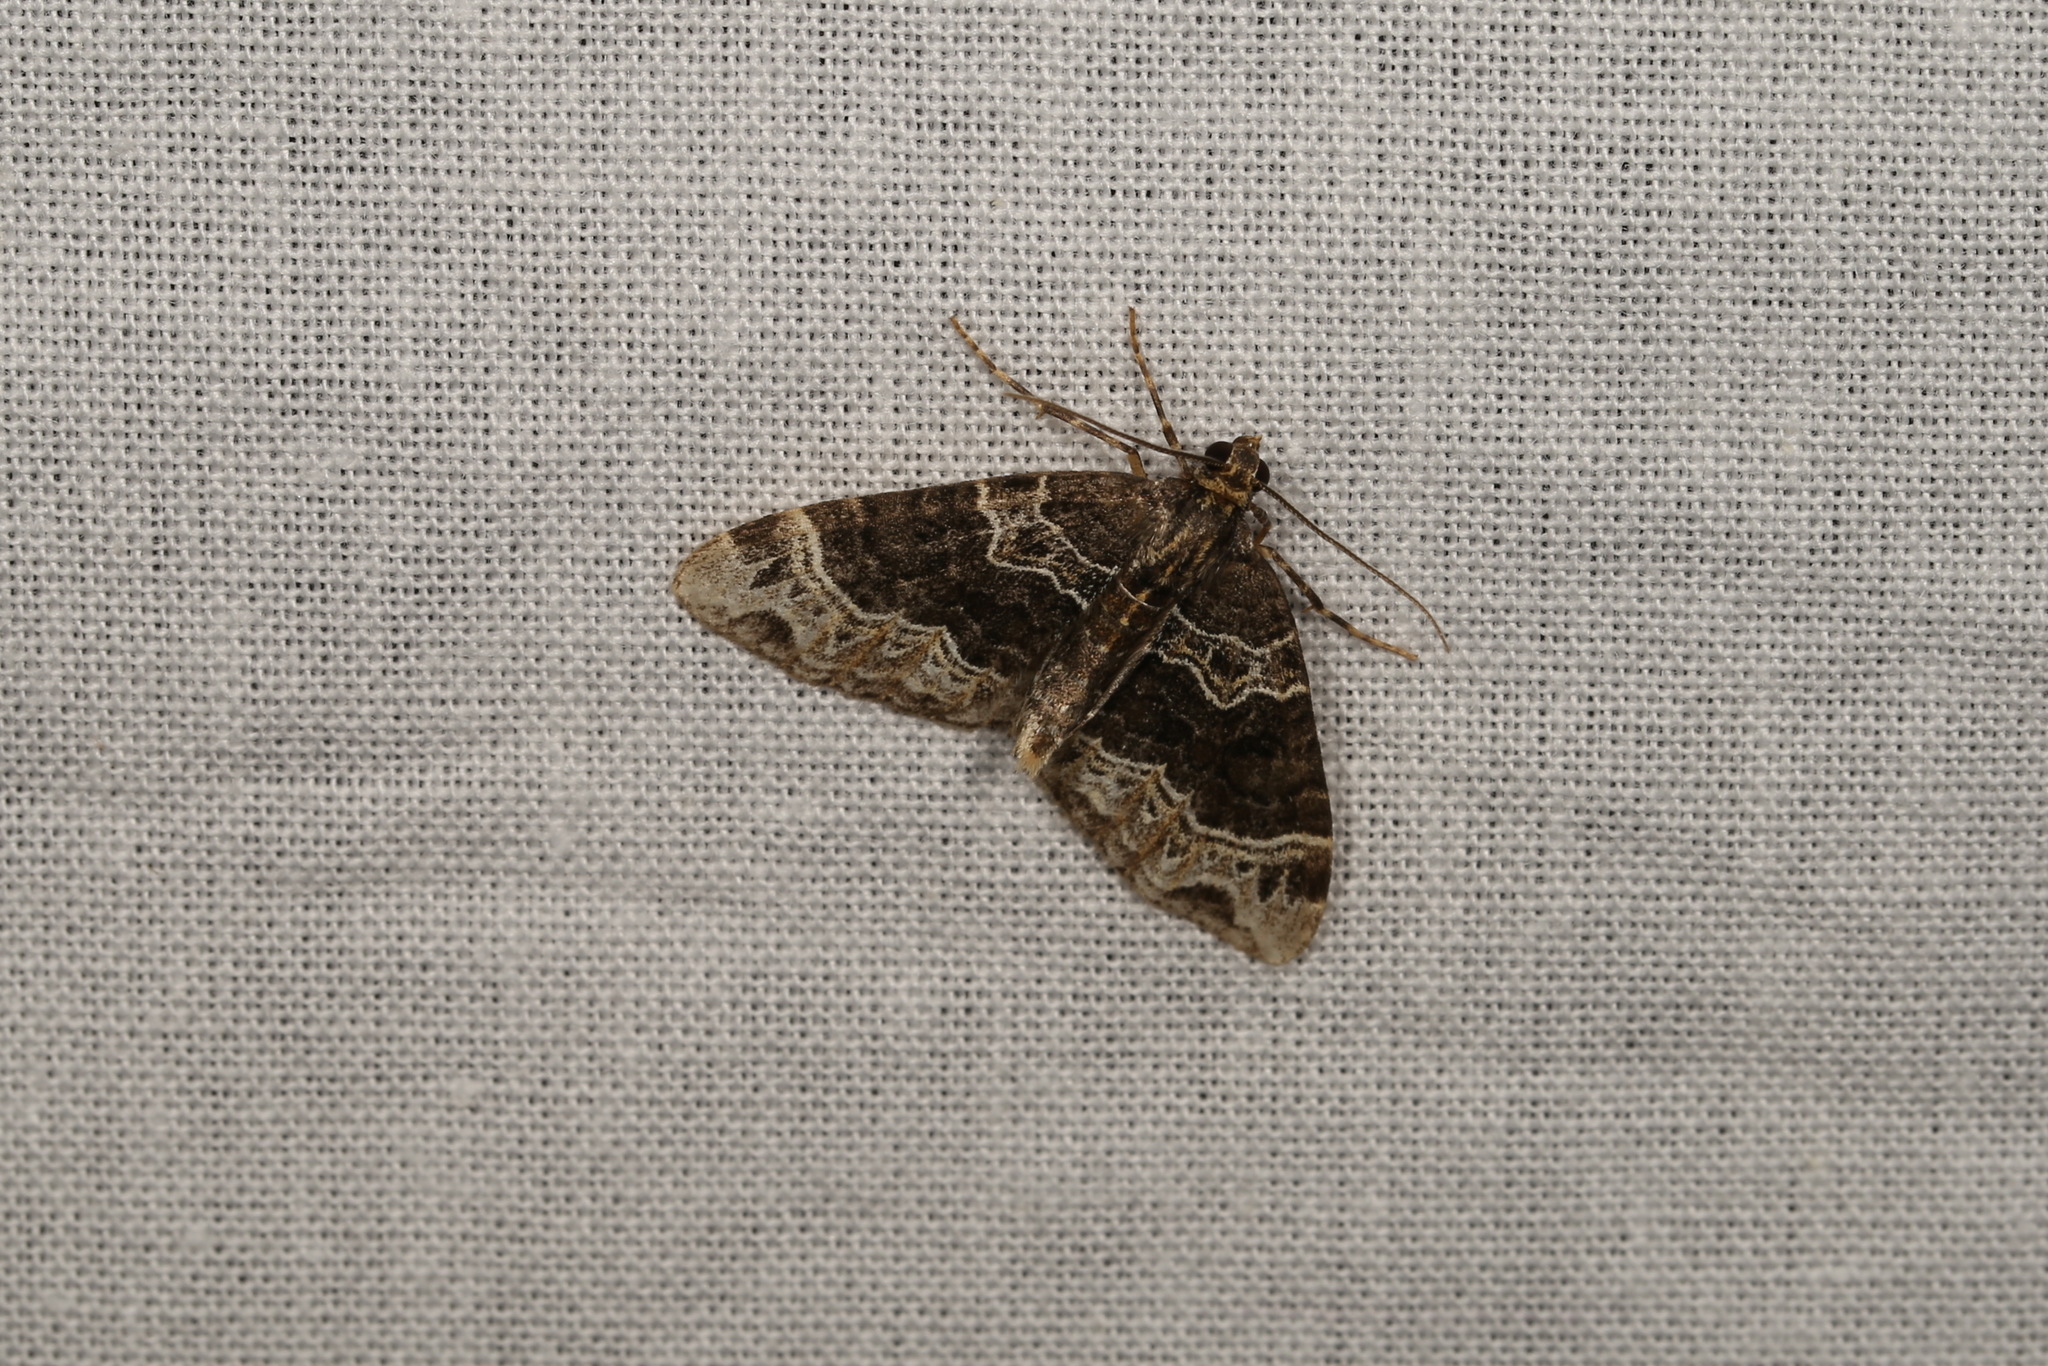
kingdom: Animalia
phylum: Arthropoda
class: Insecta
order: Lepidoptera
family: Geometridae
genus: Ecliptopera
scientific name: Ecliptopera silaceata
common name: Small phoenix
